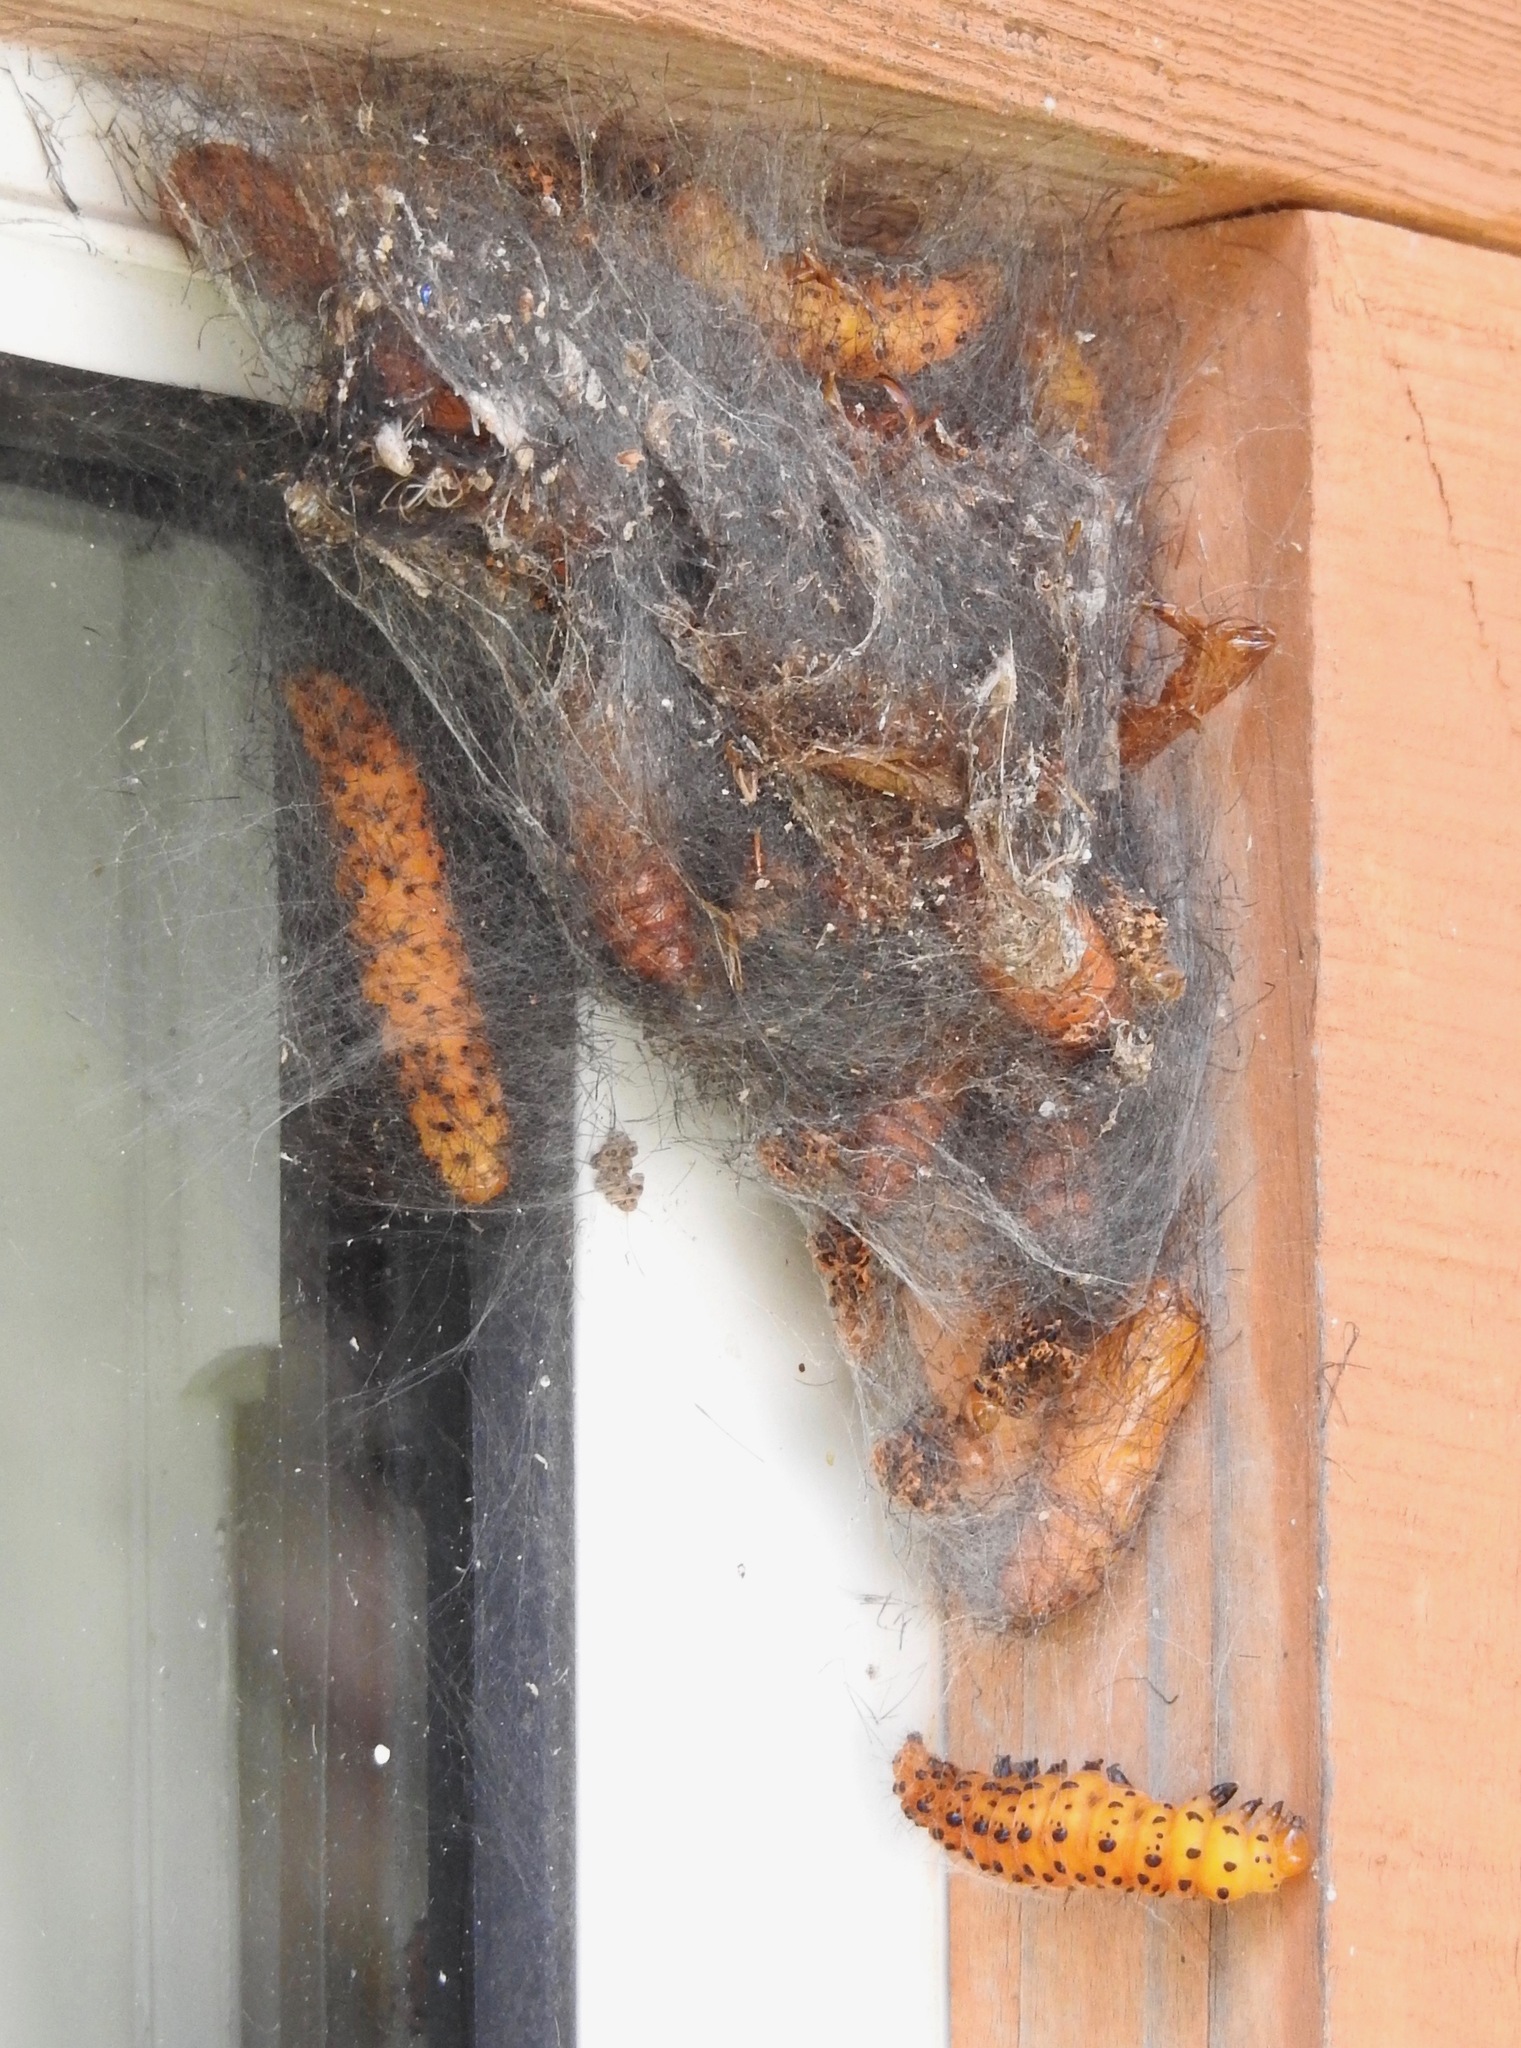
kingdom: Animalia
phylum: Arthropoda
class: Insecta
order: Lepidoptera
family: Erebidae
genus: Syntomeida
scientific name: Syntomeida epilais
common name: Polka-dot wasp moth
